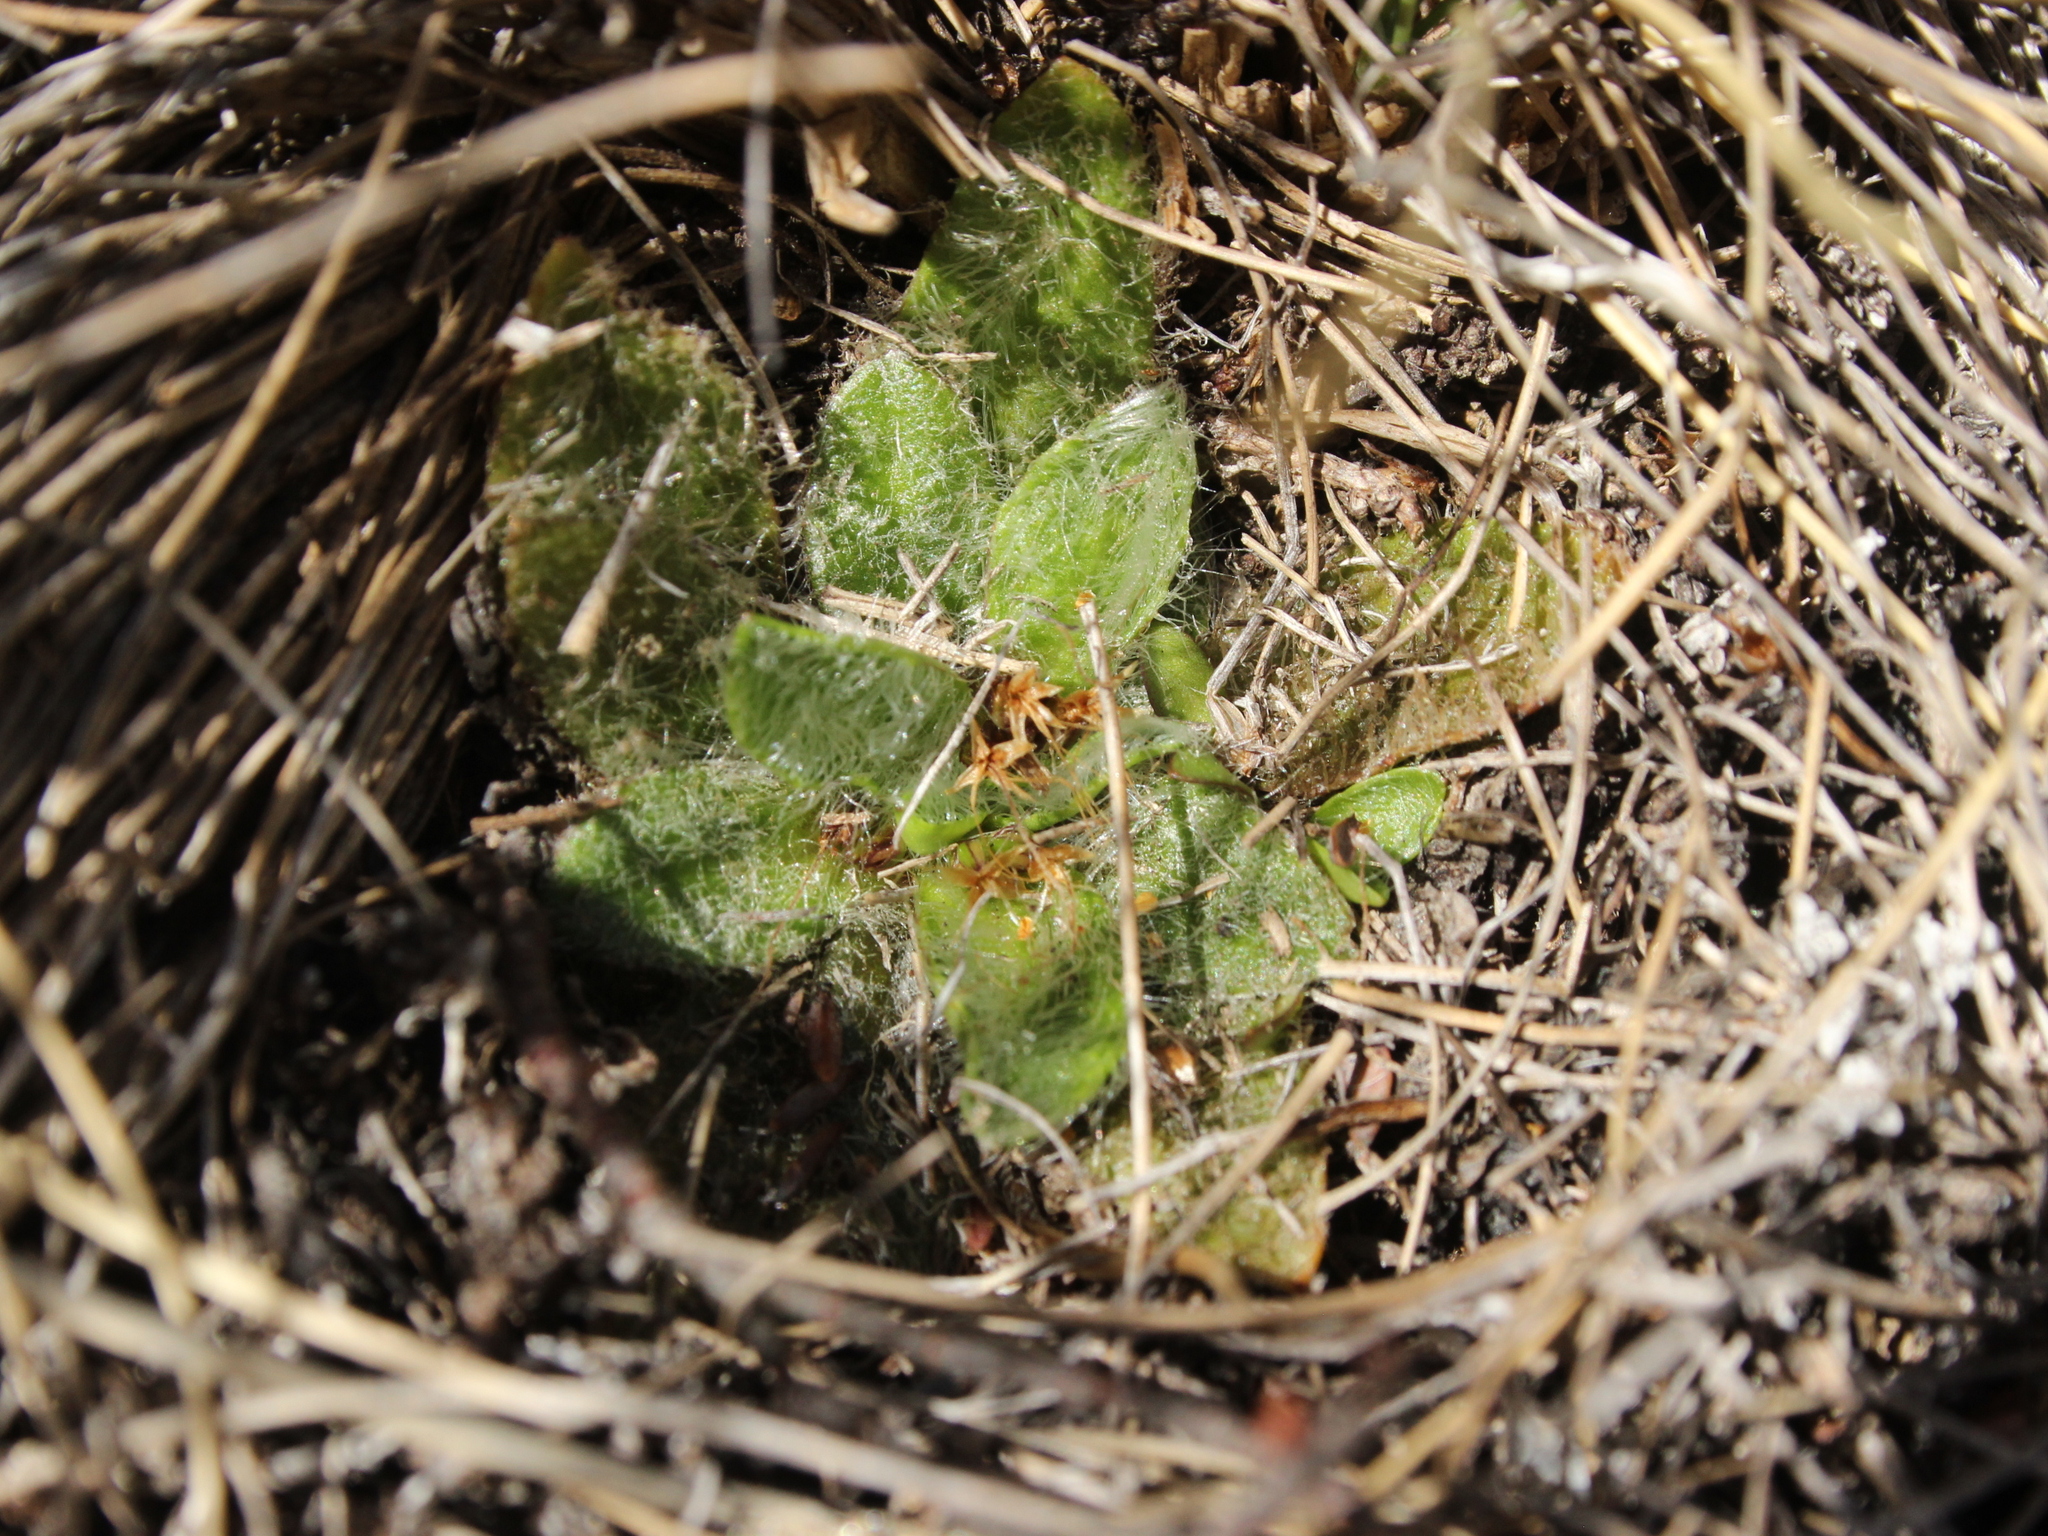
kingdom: Plantae
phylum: Tracheophyta
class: Magnoliopsida
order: Lamiales
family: Plantaginaceae
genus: Plantago
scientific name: Plantago lanigera
